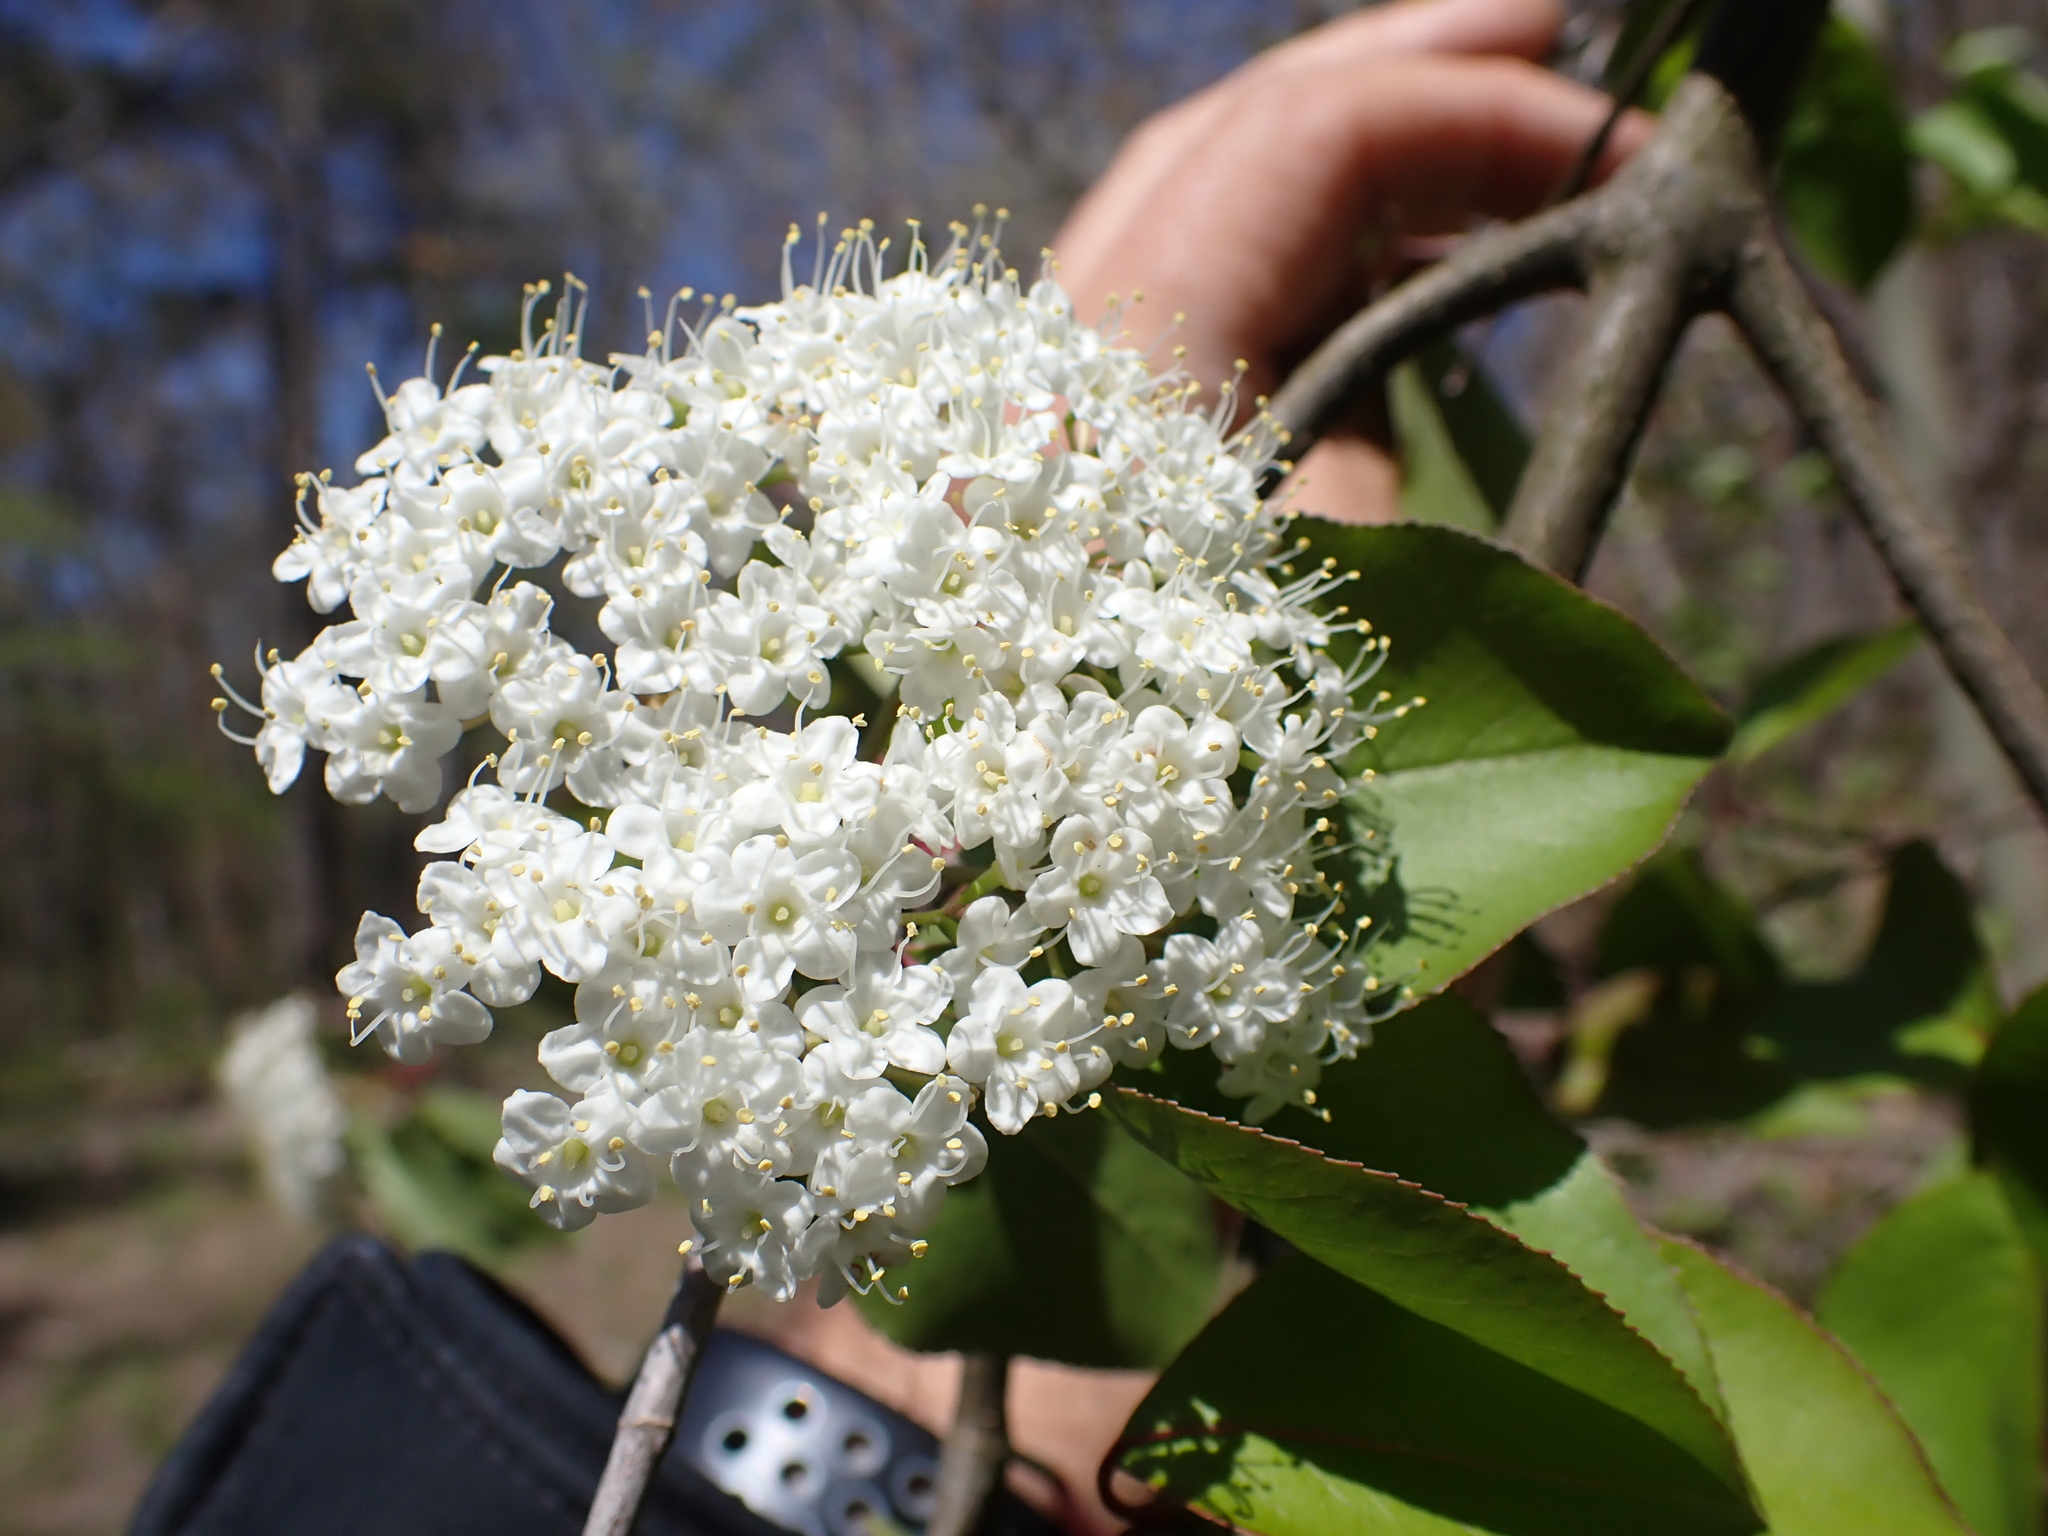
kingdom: Plantae
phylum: Tracheophyta
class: Magnoliopsida
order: Dipsacales
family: Viburnaceae
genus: Viburnum
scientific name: Viburnum prunifolium
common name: Black haw
